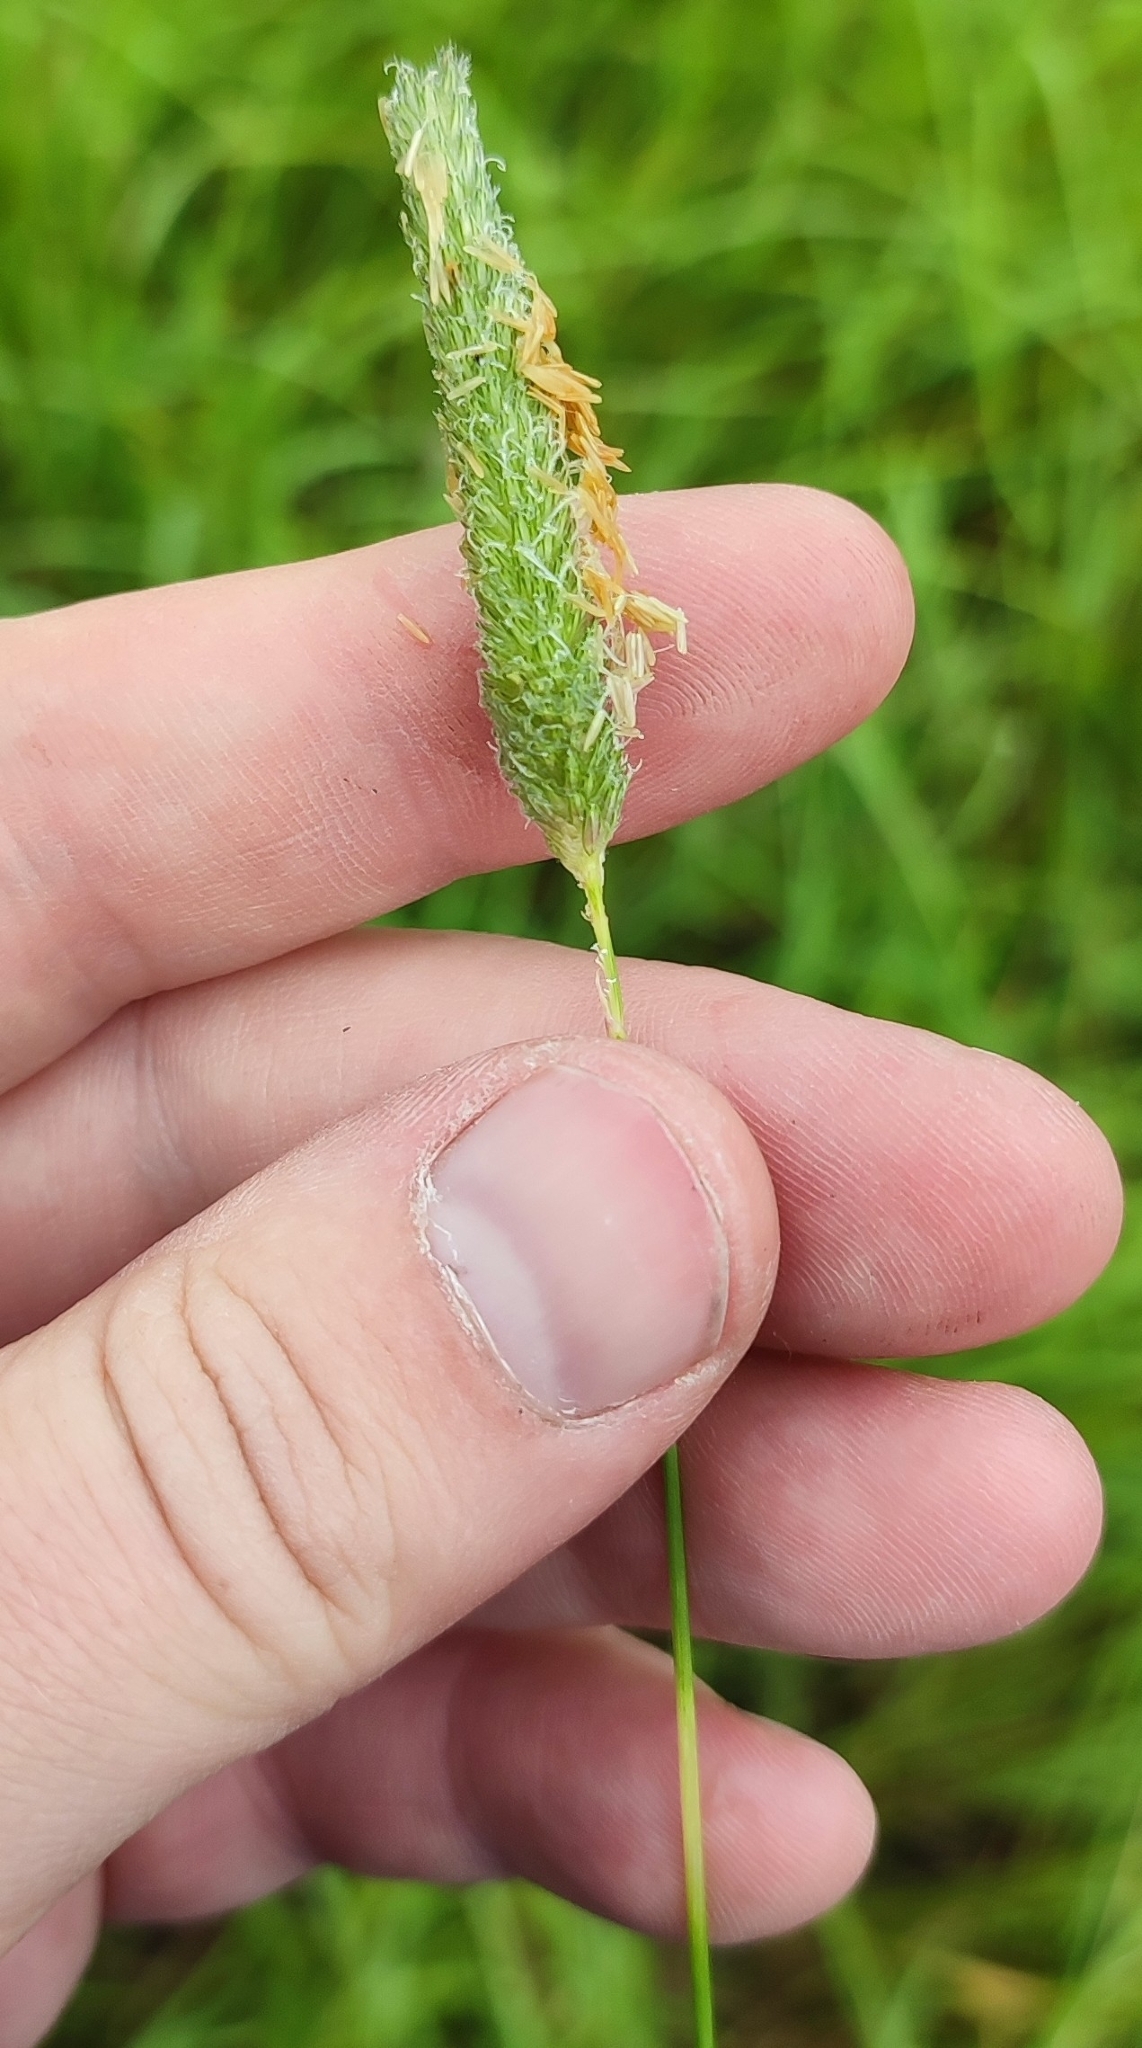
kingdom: Plantae
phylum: Tracheophyta
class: Liliopsida
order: Poales
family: Poaceae
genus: Alopecurus
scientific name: Alopecurus pratensis
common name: Meadow foxtail
